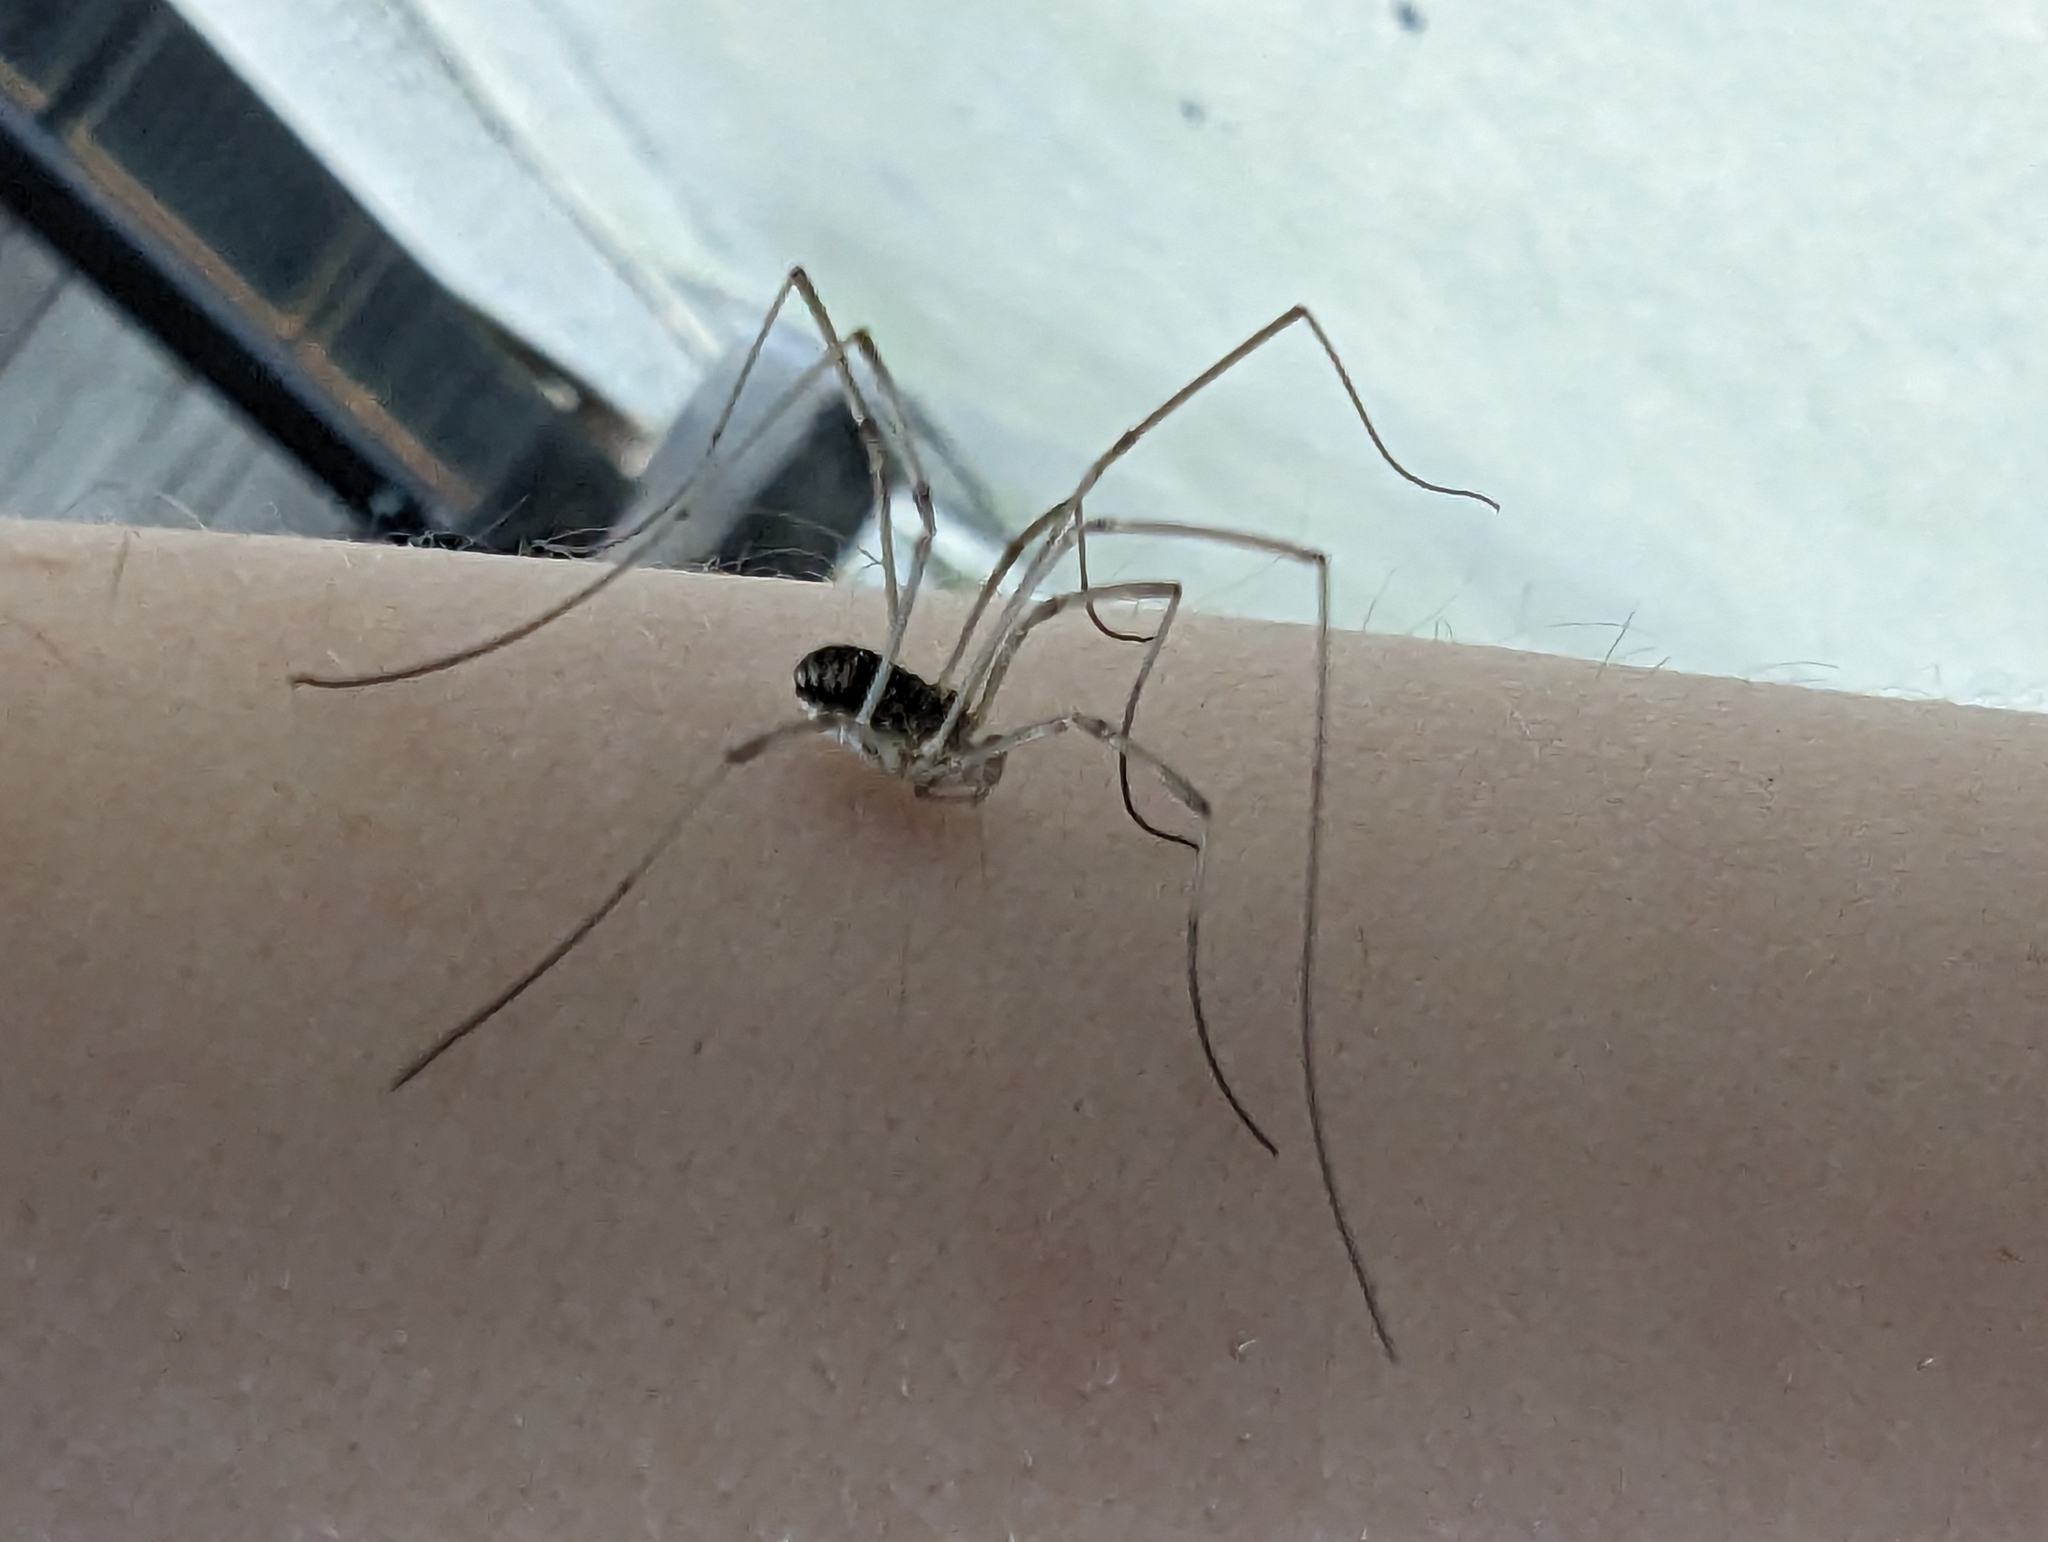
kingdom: Animalia
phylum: Arthropoda
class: Arachnida
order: Opiliones
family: Phalangiidae
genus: Phalangium
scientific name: Phalangium opilio
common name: Daddy longleg
